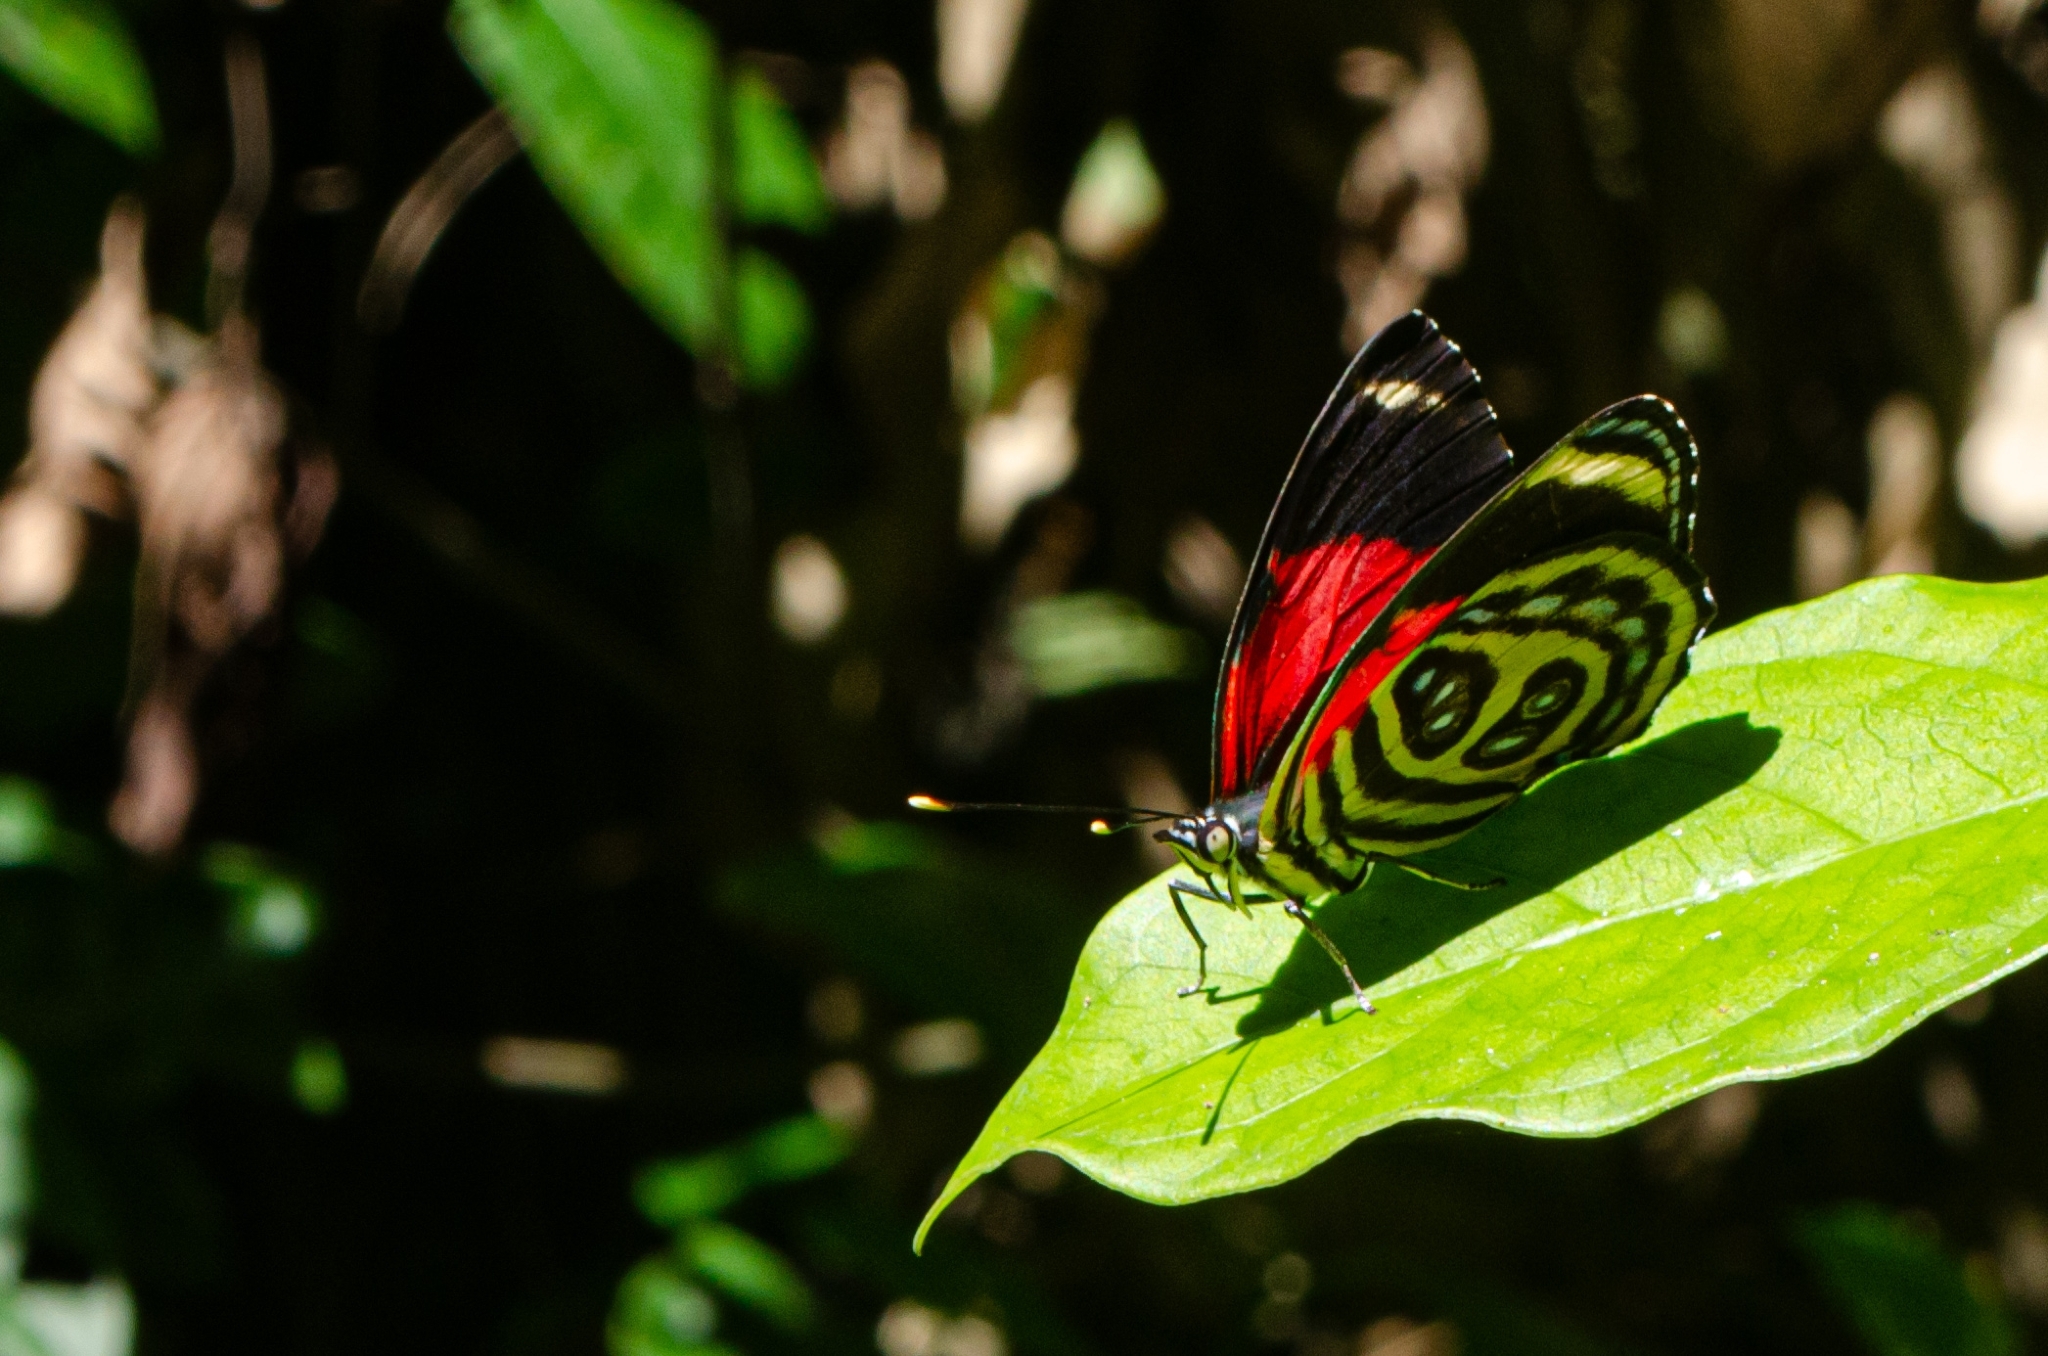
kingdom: Animalia
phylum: Arthropoda
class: Insecta
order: Lepidoptera
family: Nymphalidae
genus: Catagramma
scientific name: Catagramma pygas
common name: Godart's numberwing
